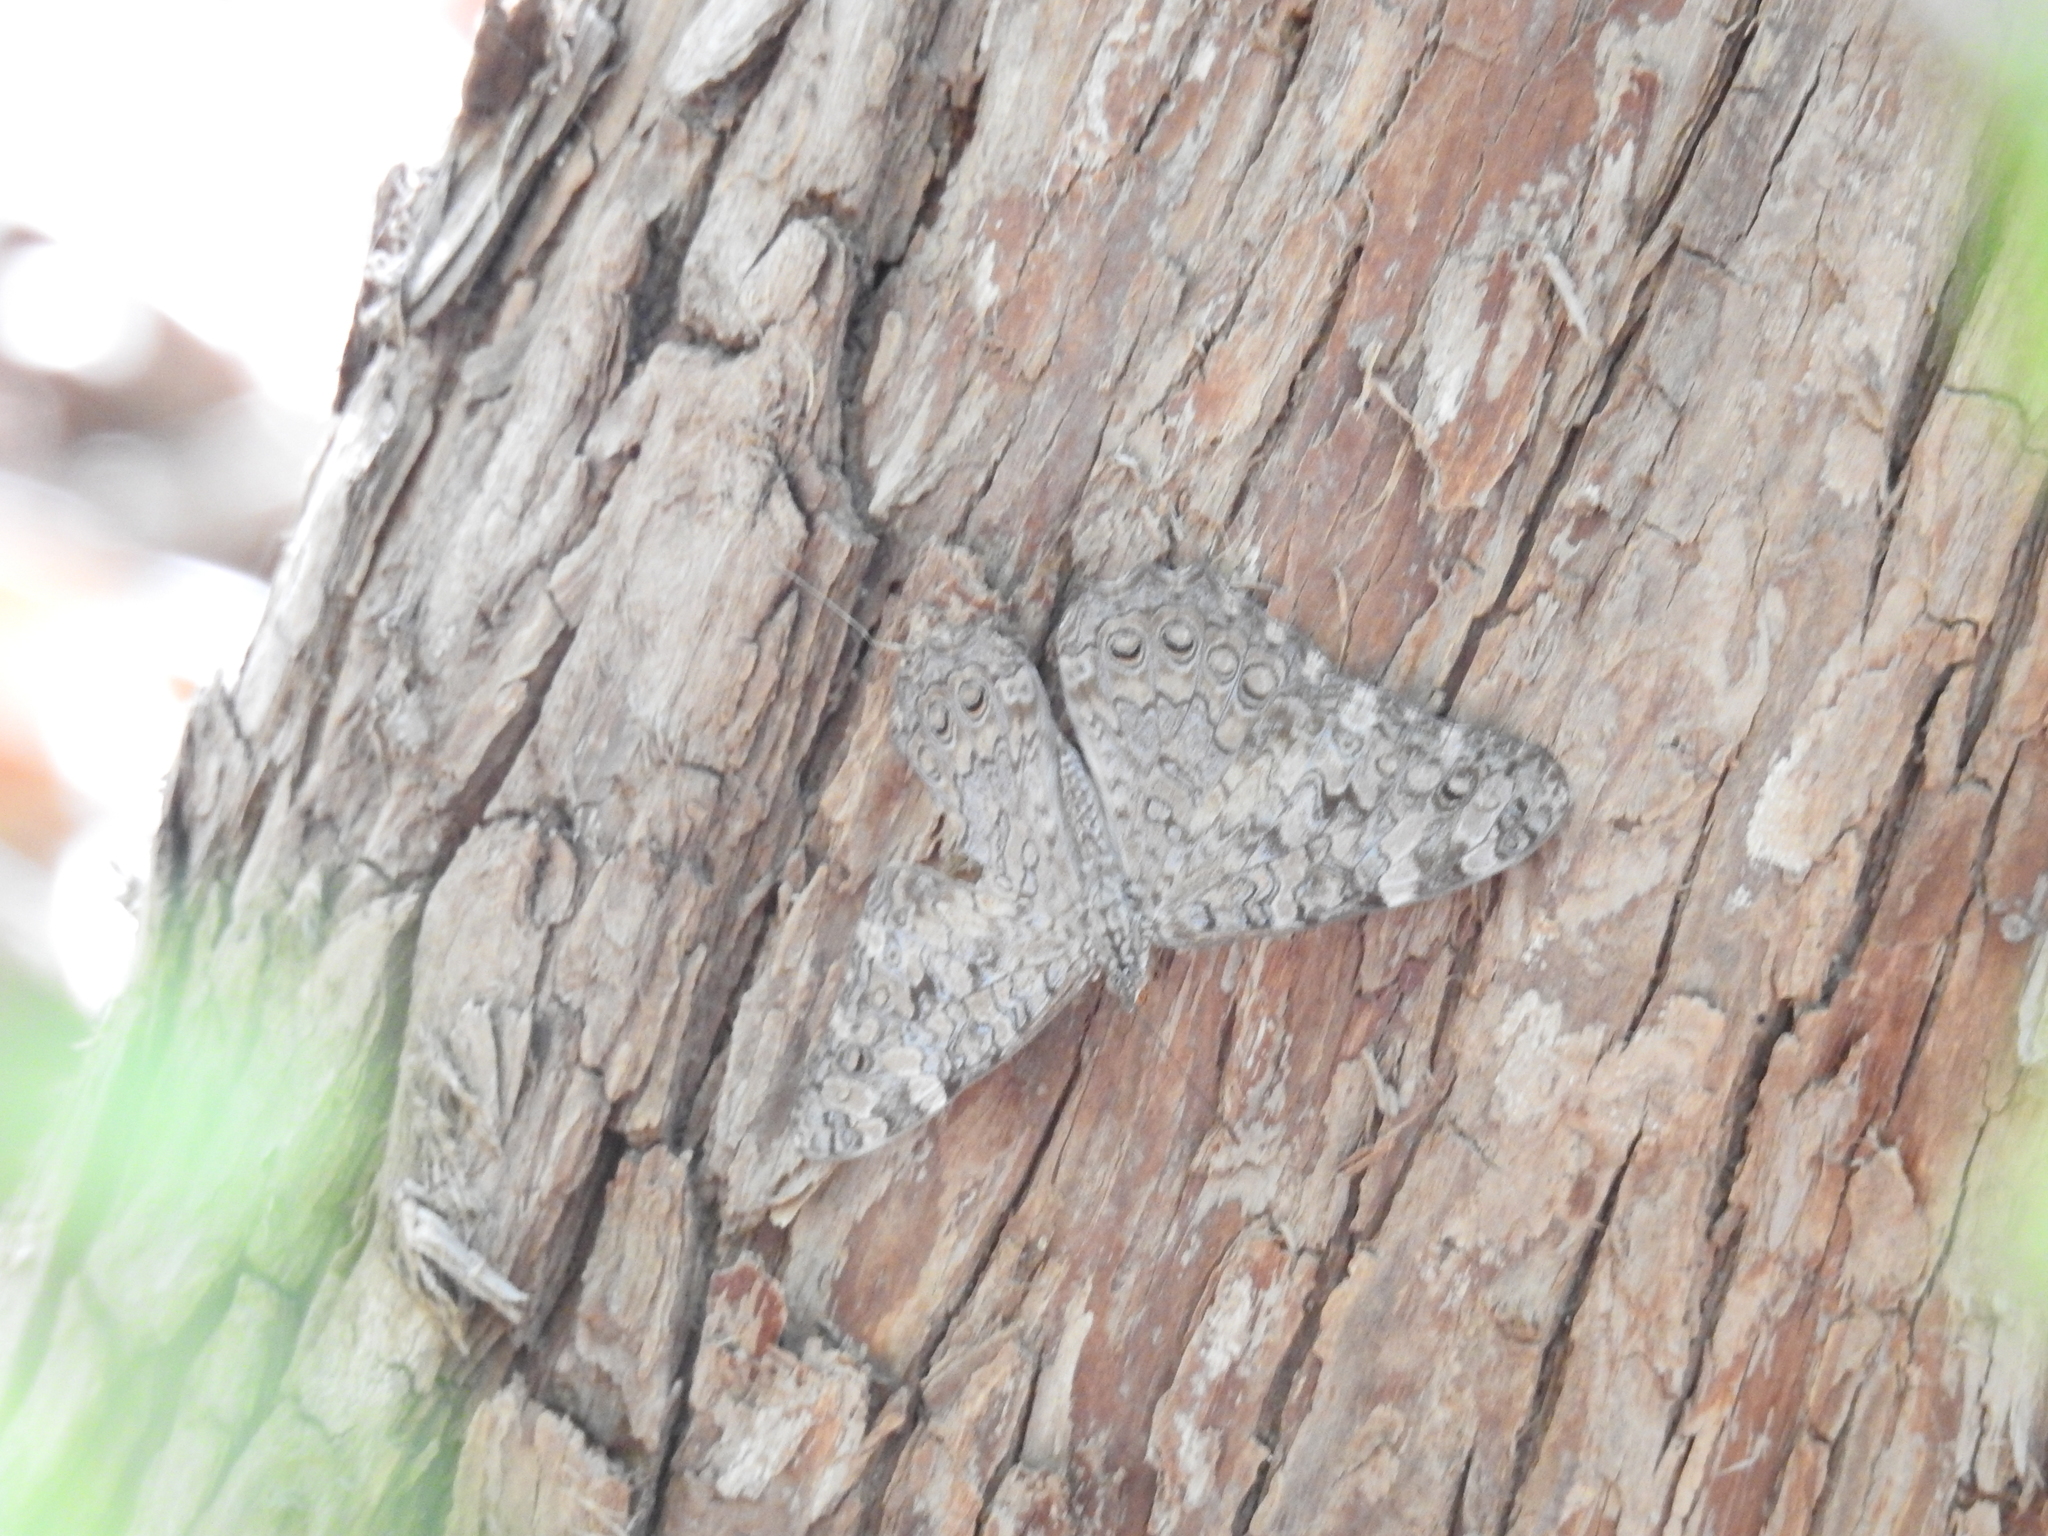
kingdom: Animalia
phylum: Arthropoda
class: Insecta
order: Lepidoptera
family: Nymphalidae
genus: Hamadryas
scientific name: Hamadryas februa
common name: Gray cracker
